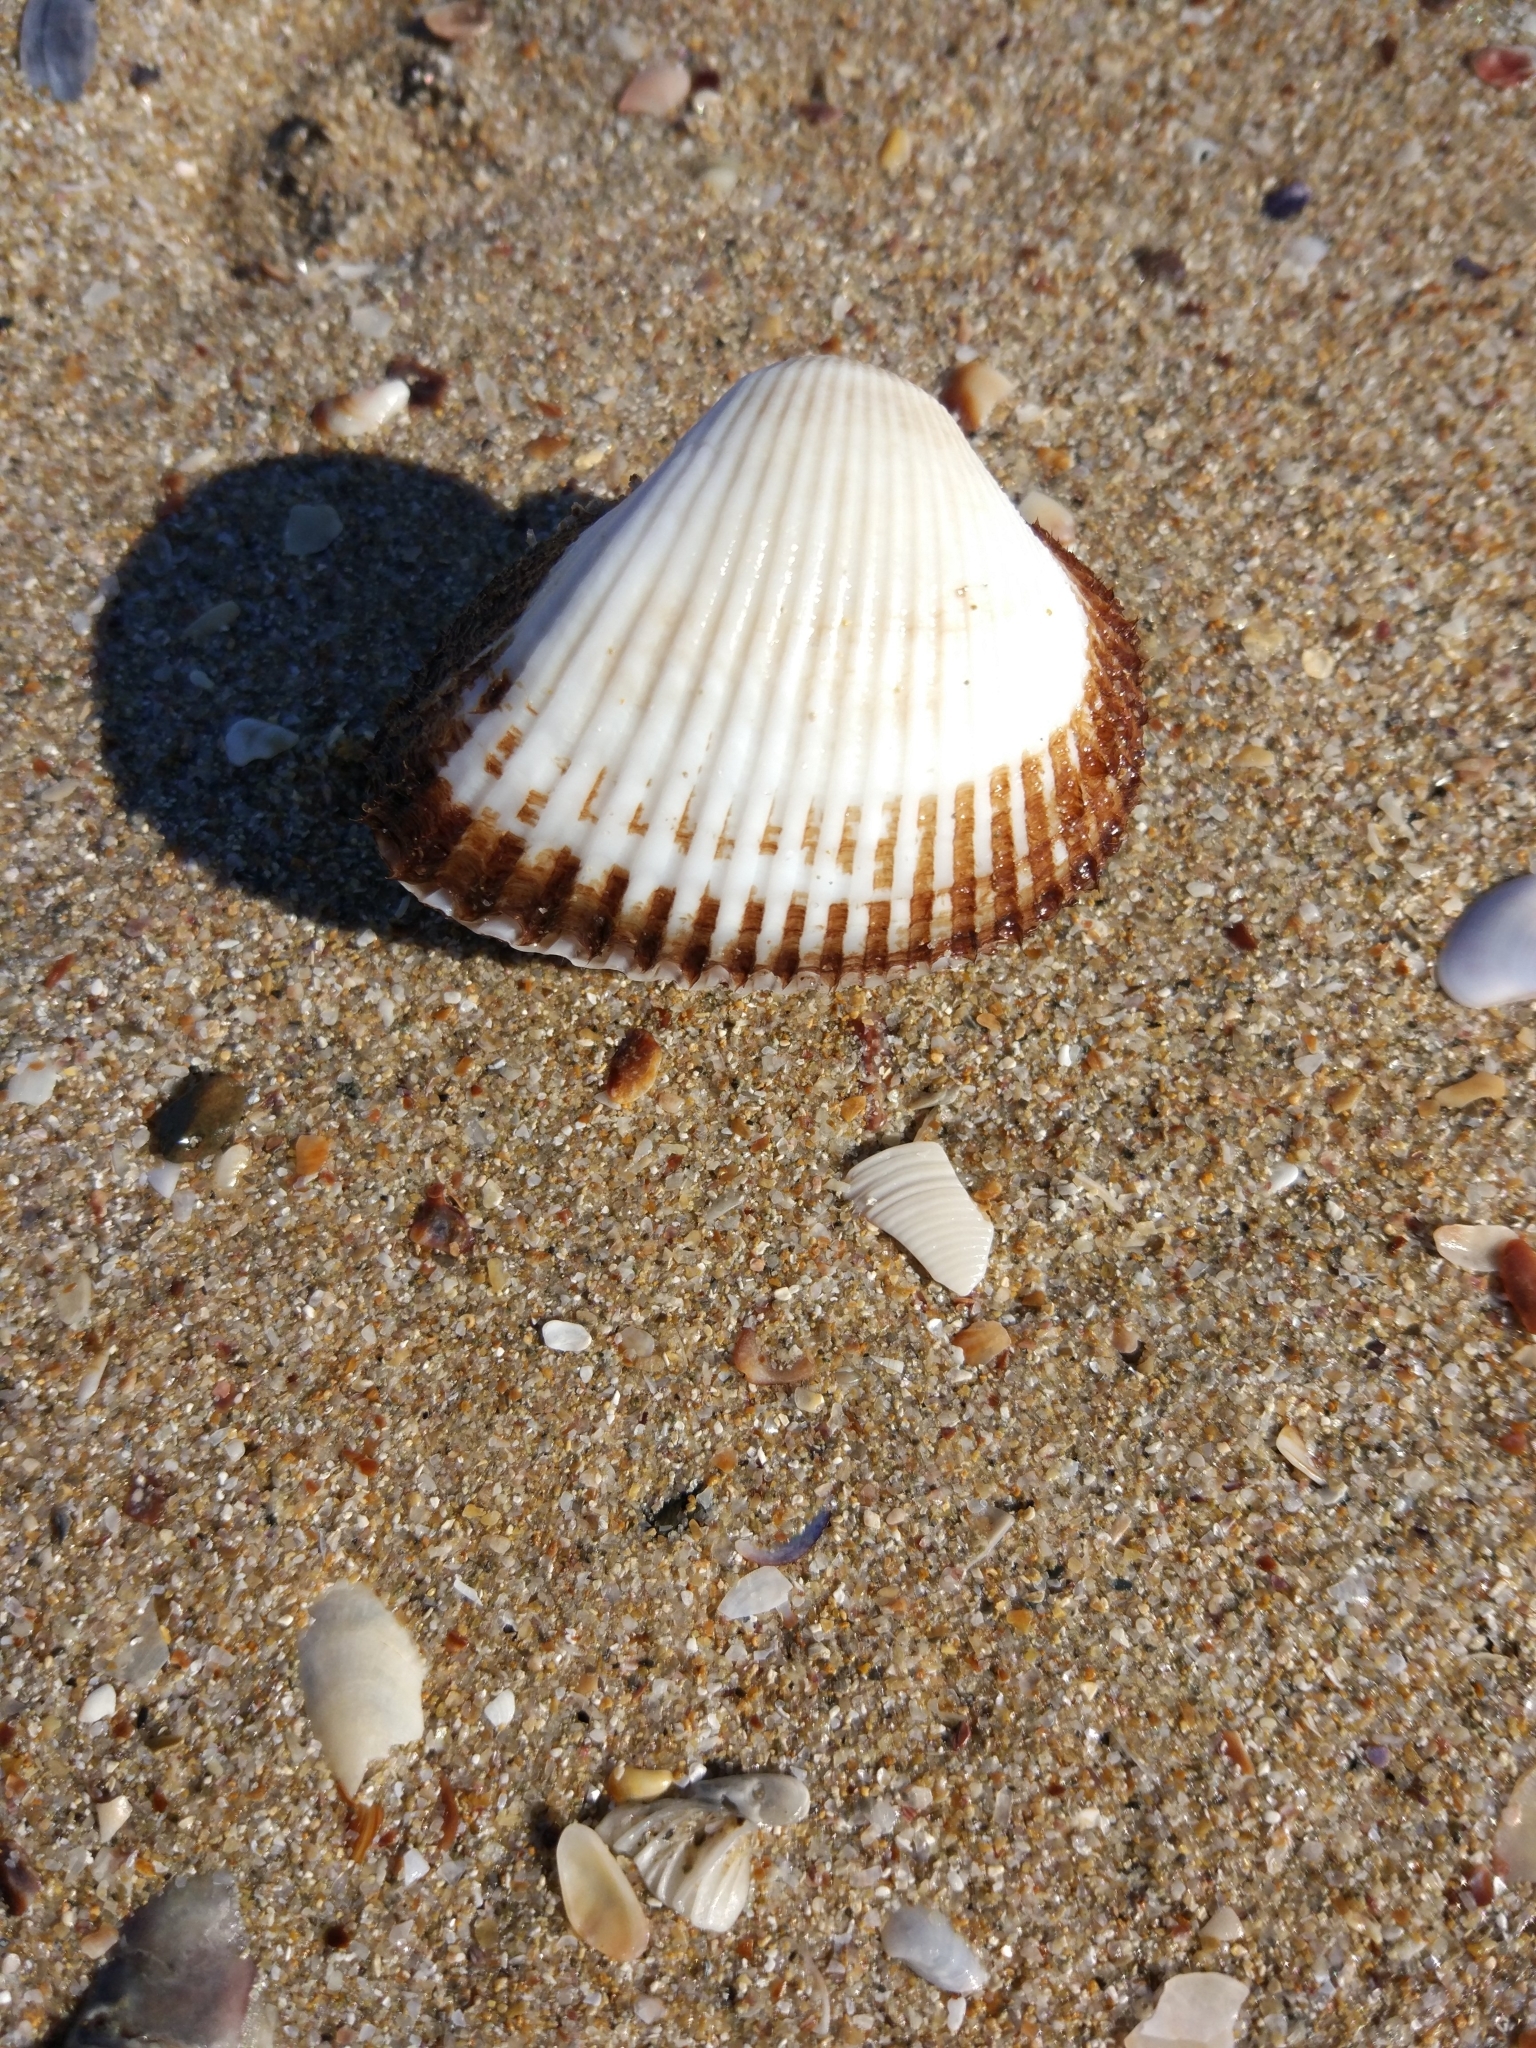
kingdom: Animalia
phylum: Mollusca
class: Bivalvia
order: Arcida
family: Arcidae
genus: Anadara
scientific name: Anadara kagoshimensis
